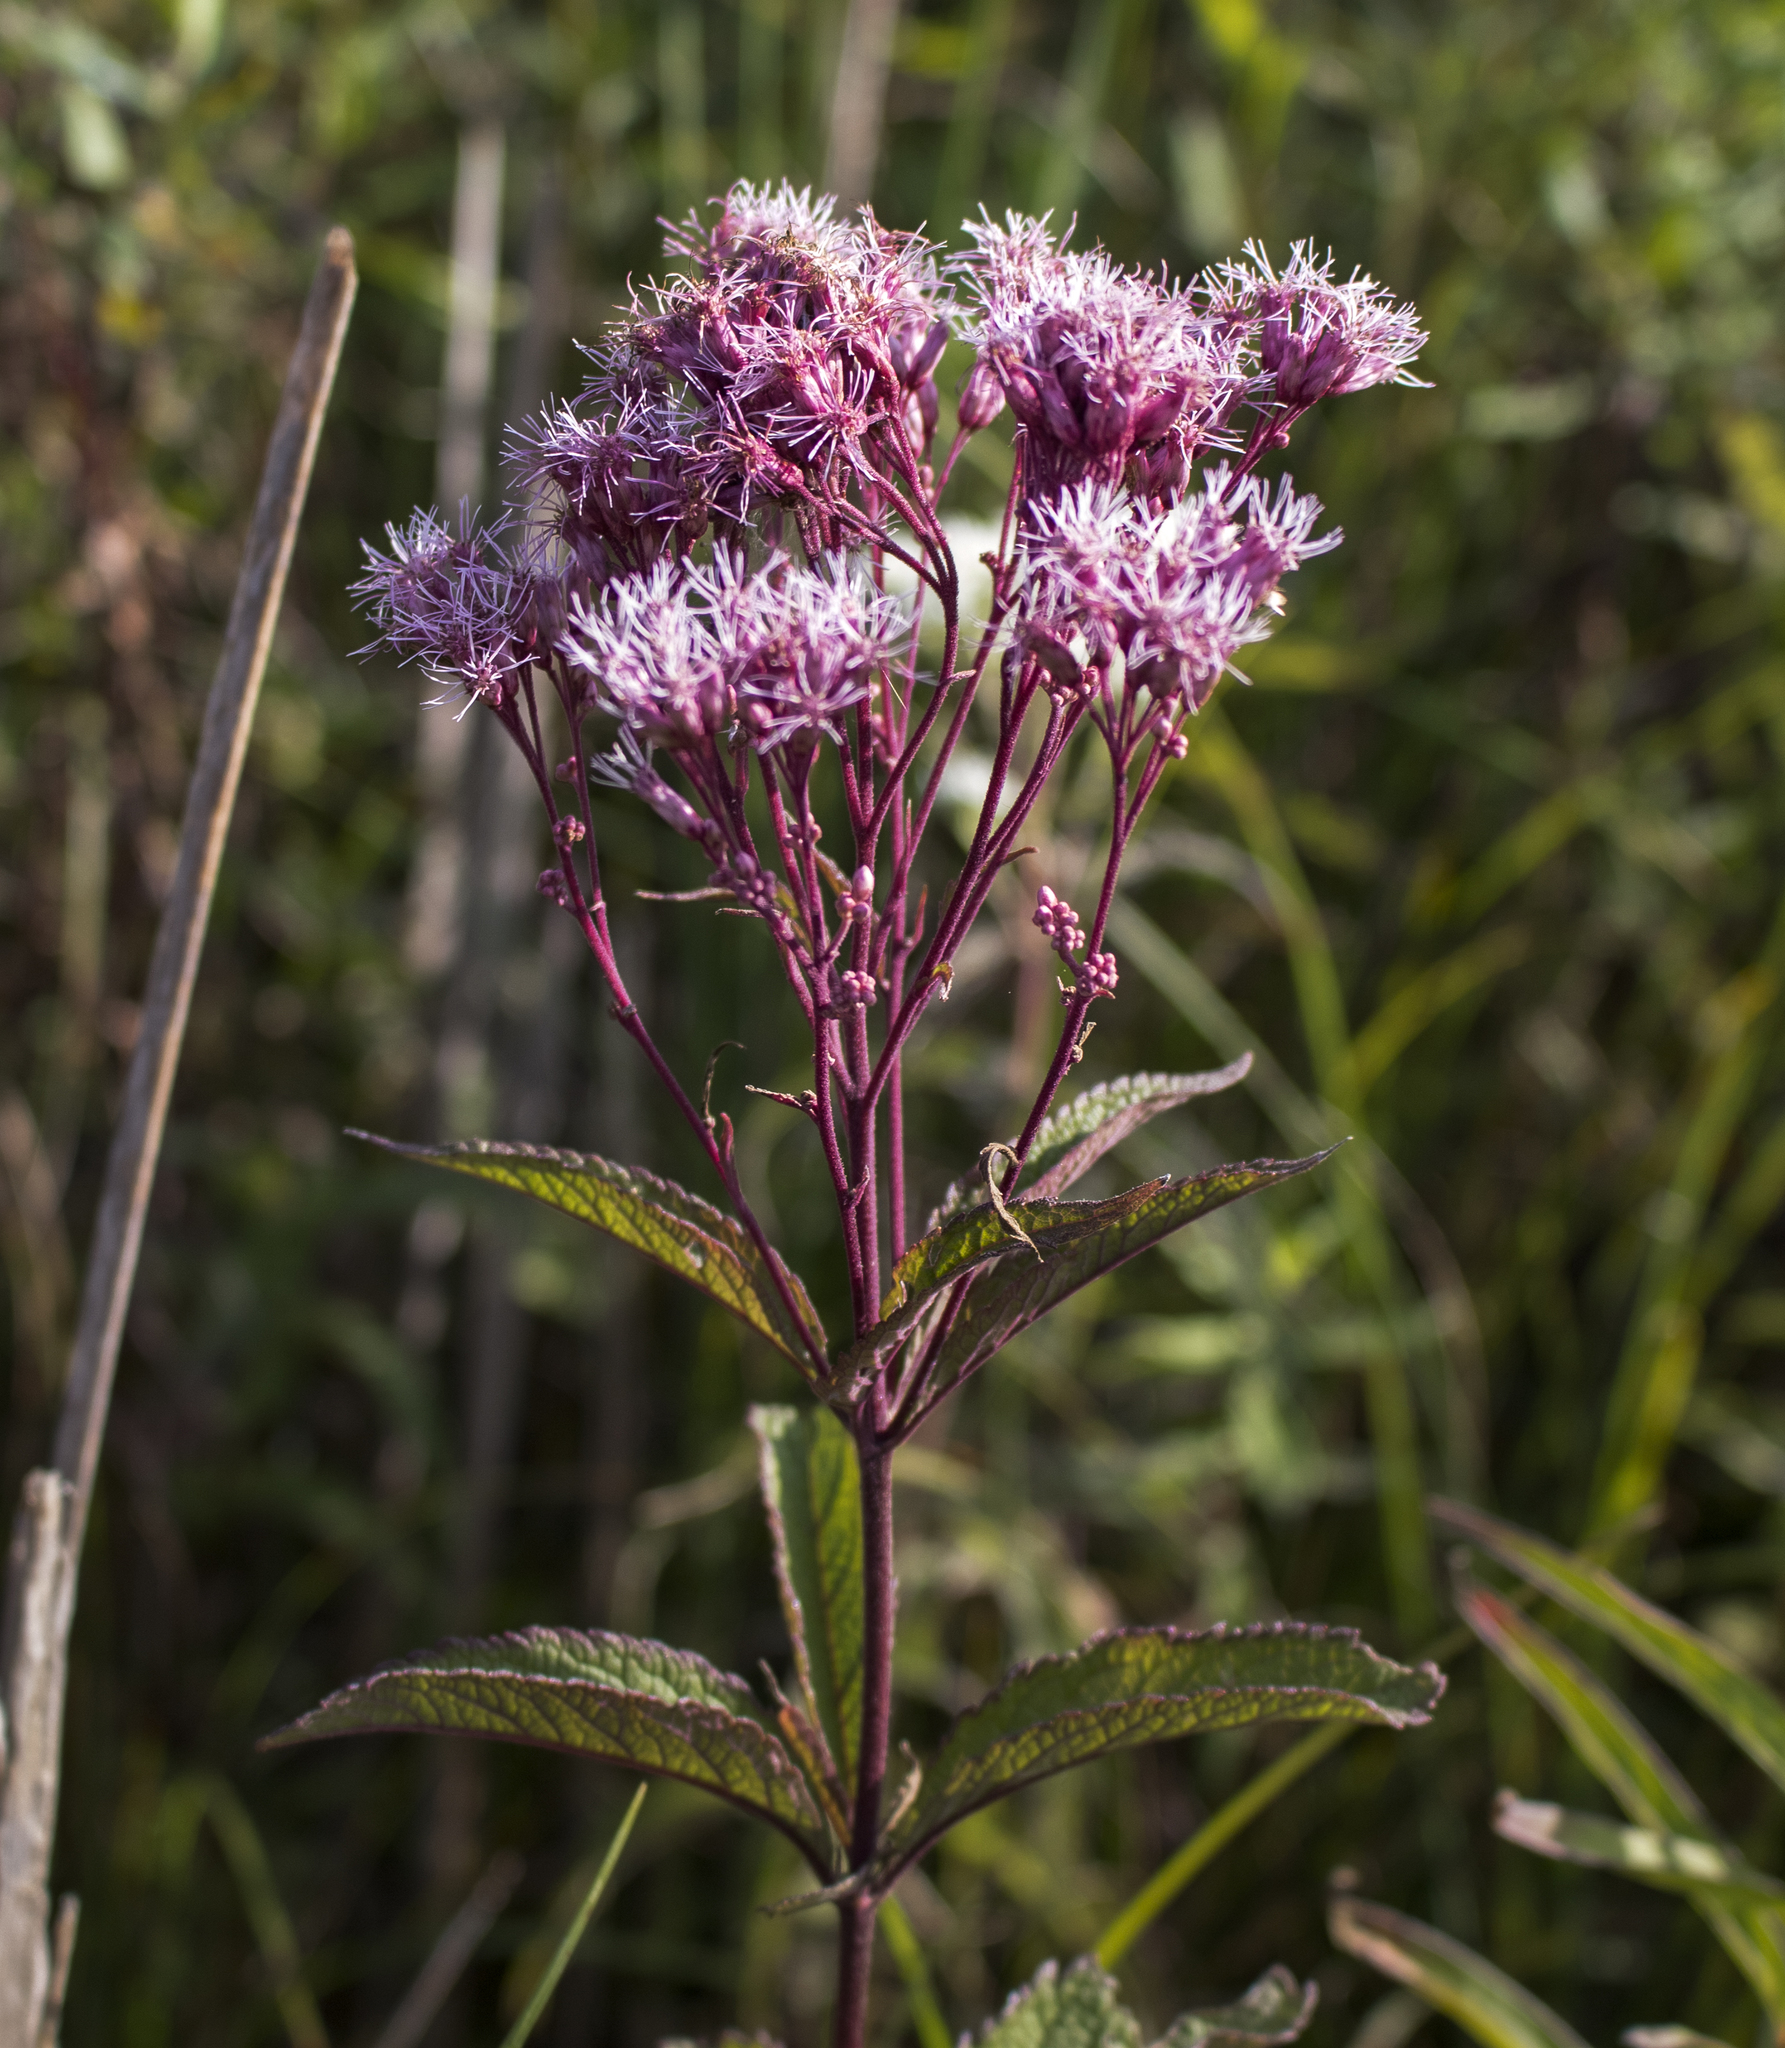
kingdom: Plantae
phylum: Tracheophyta
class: Magnoliopsida
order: Asterales
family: Asteraceae
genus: Eutrochium
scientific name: Eutrochium maculatum
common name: Spotted joe pye weed
